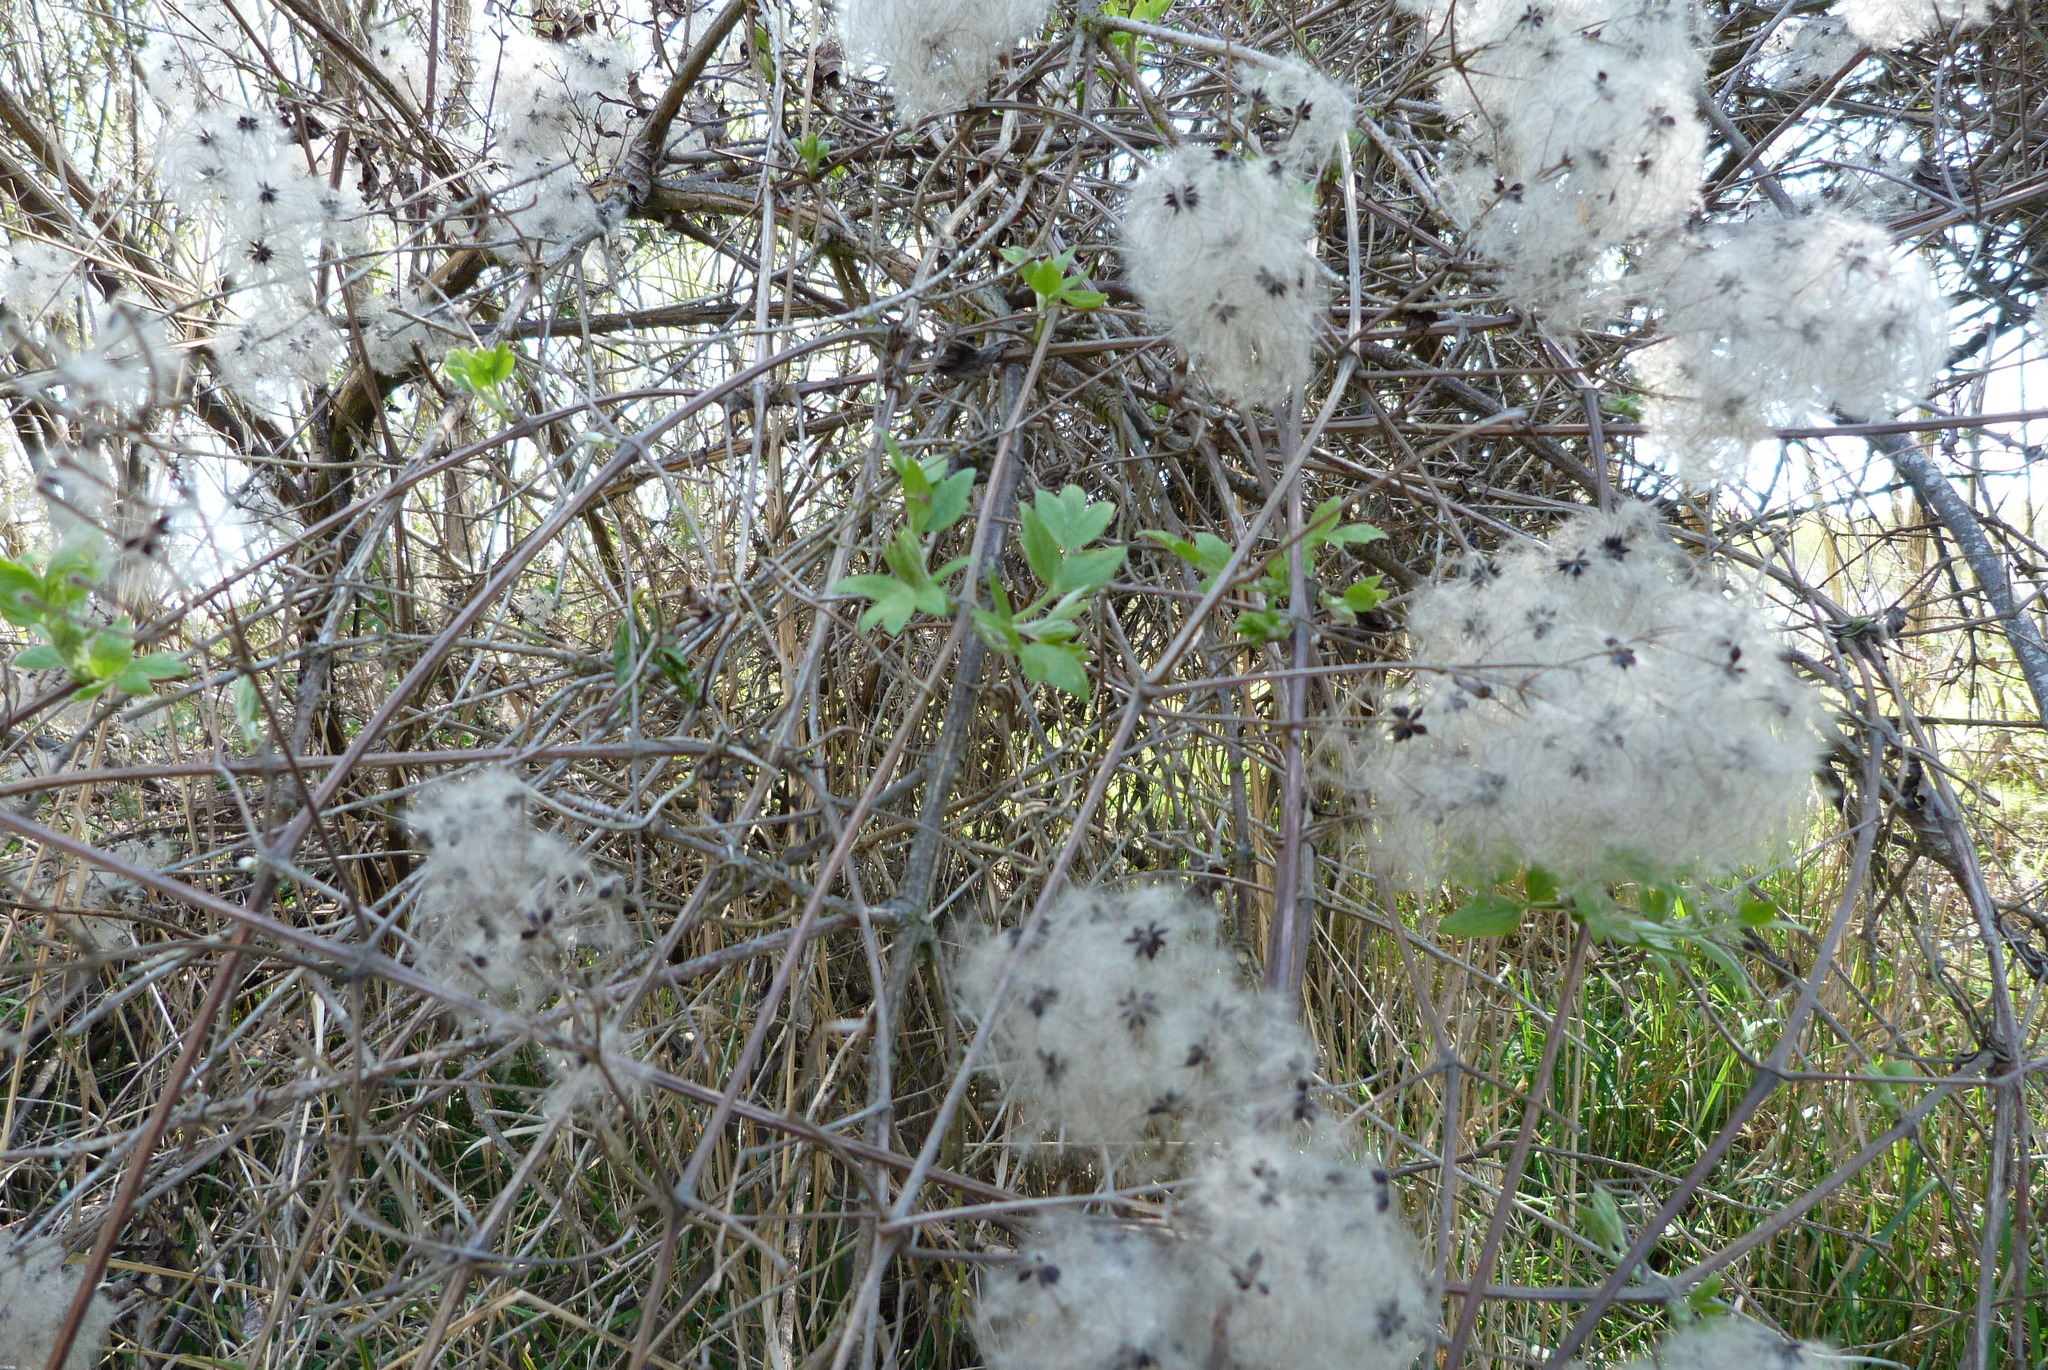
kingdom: Plantae
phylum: Tracheophyta
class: Magnoliopsida
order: Ranunculales
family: Ranunculaceae
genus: Clematis
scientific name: Clematis vitalba
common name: Evergreen clematis
